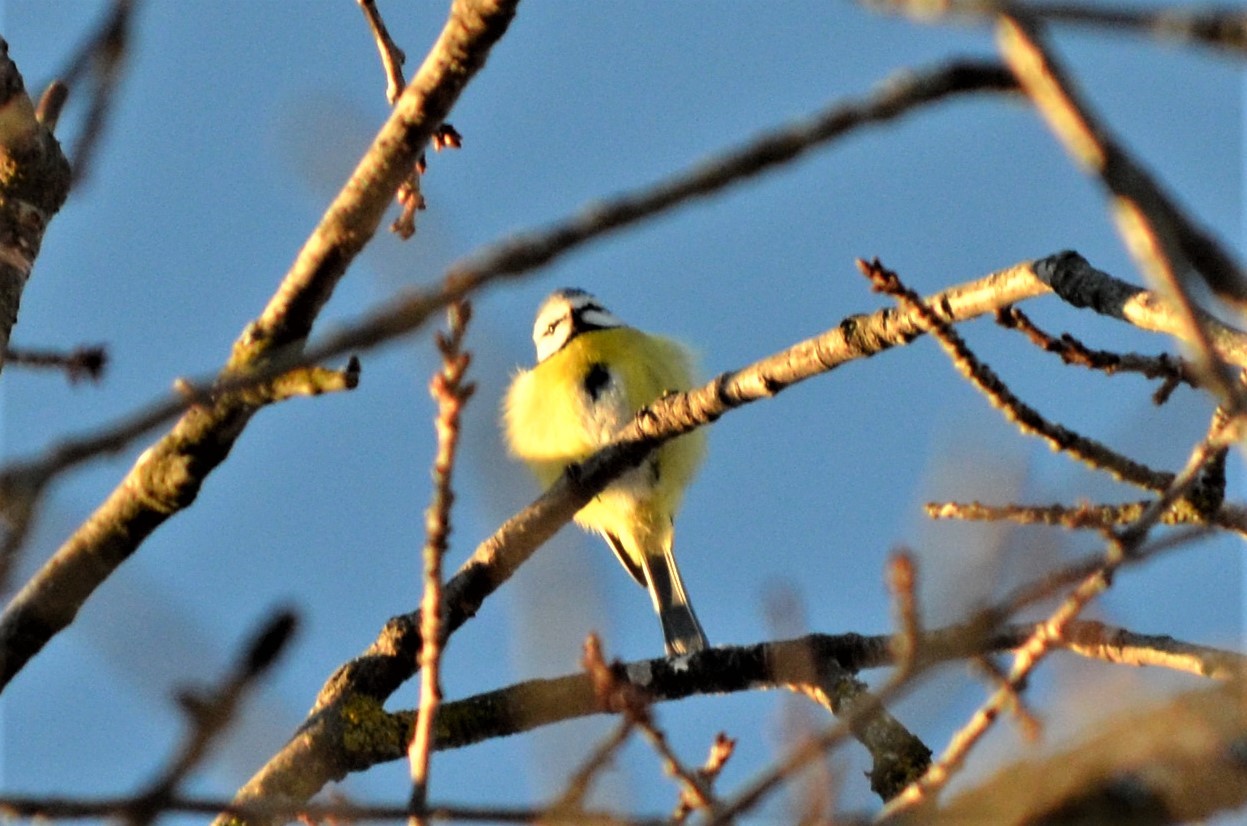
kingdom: Animalia
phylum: Chordata
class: Aves
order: Passeriformes
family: Paridae
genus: Cyanistes
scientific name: Cyanistes caeruleus
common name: Eurasian blue tit
